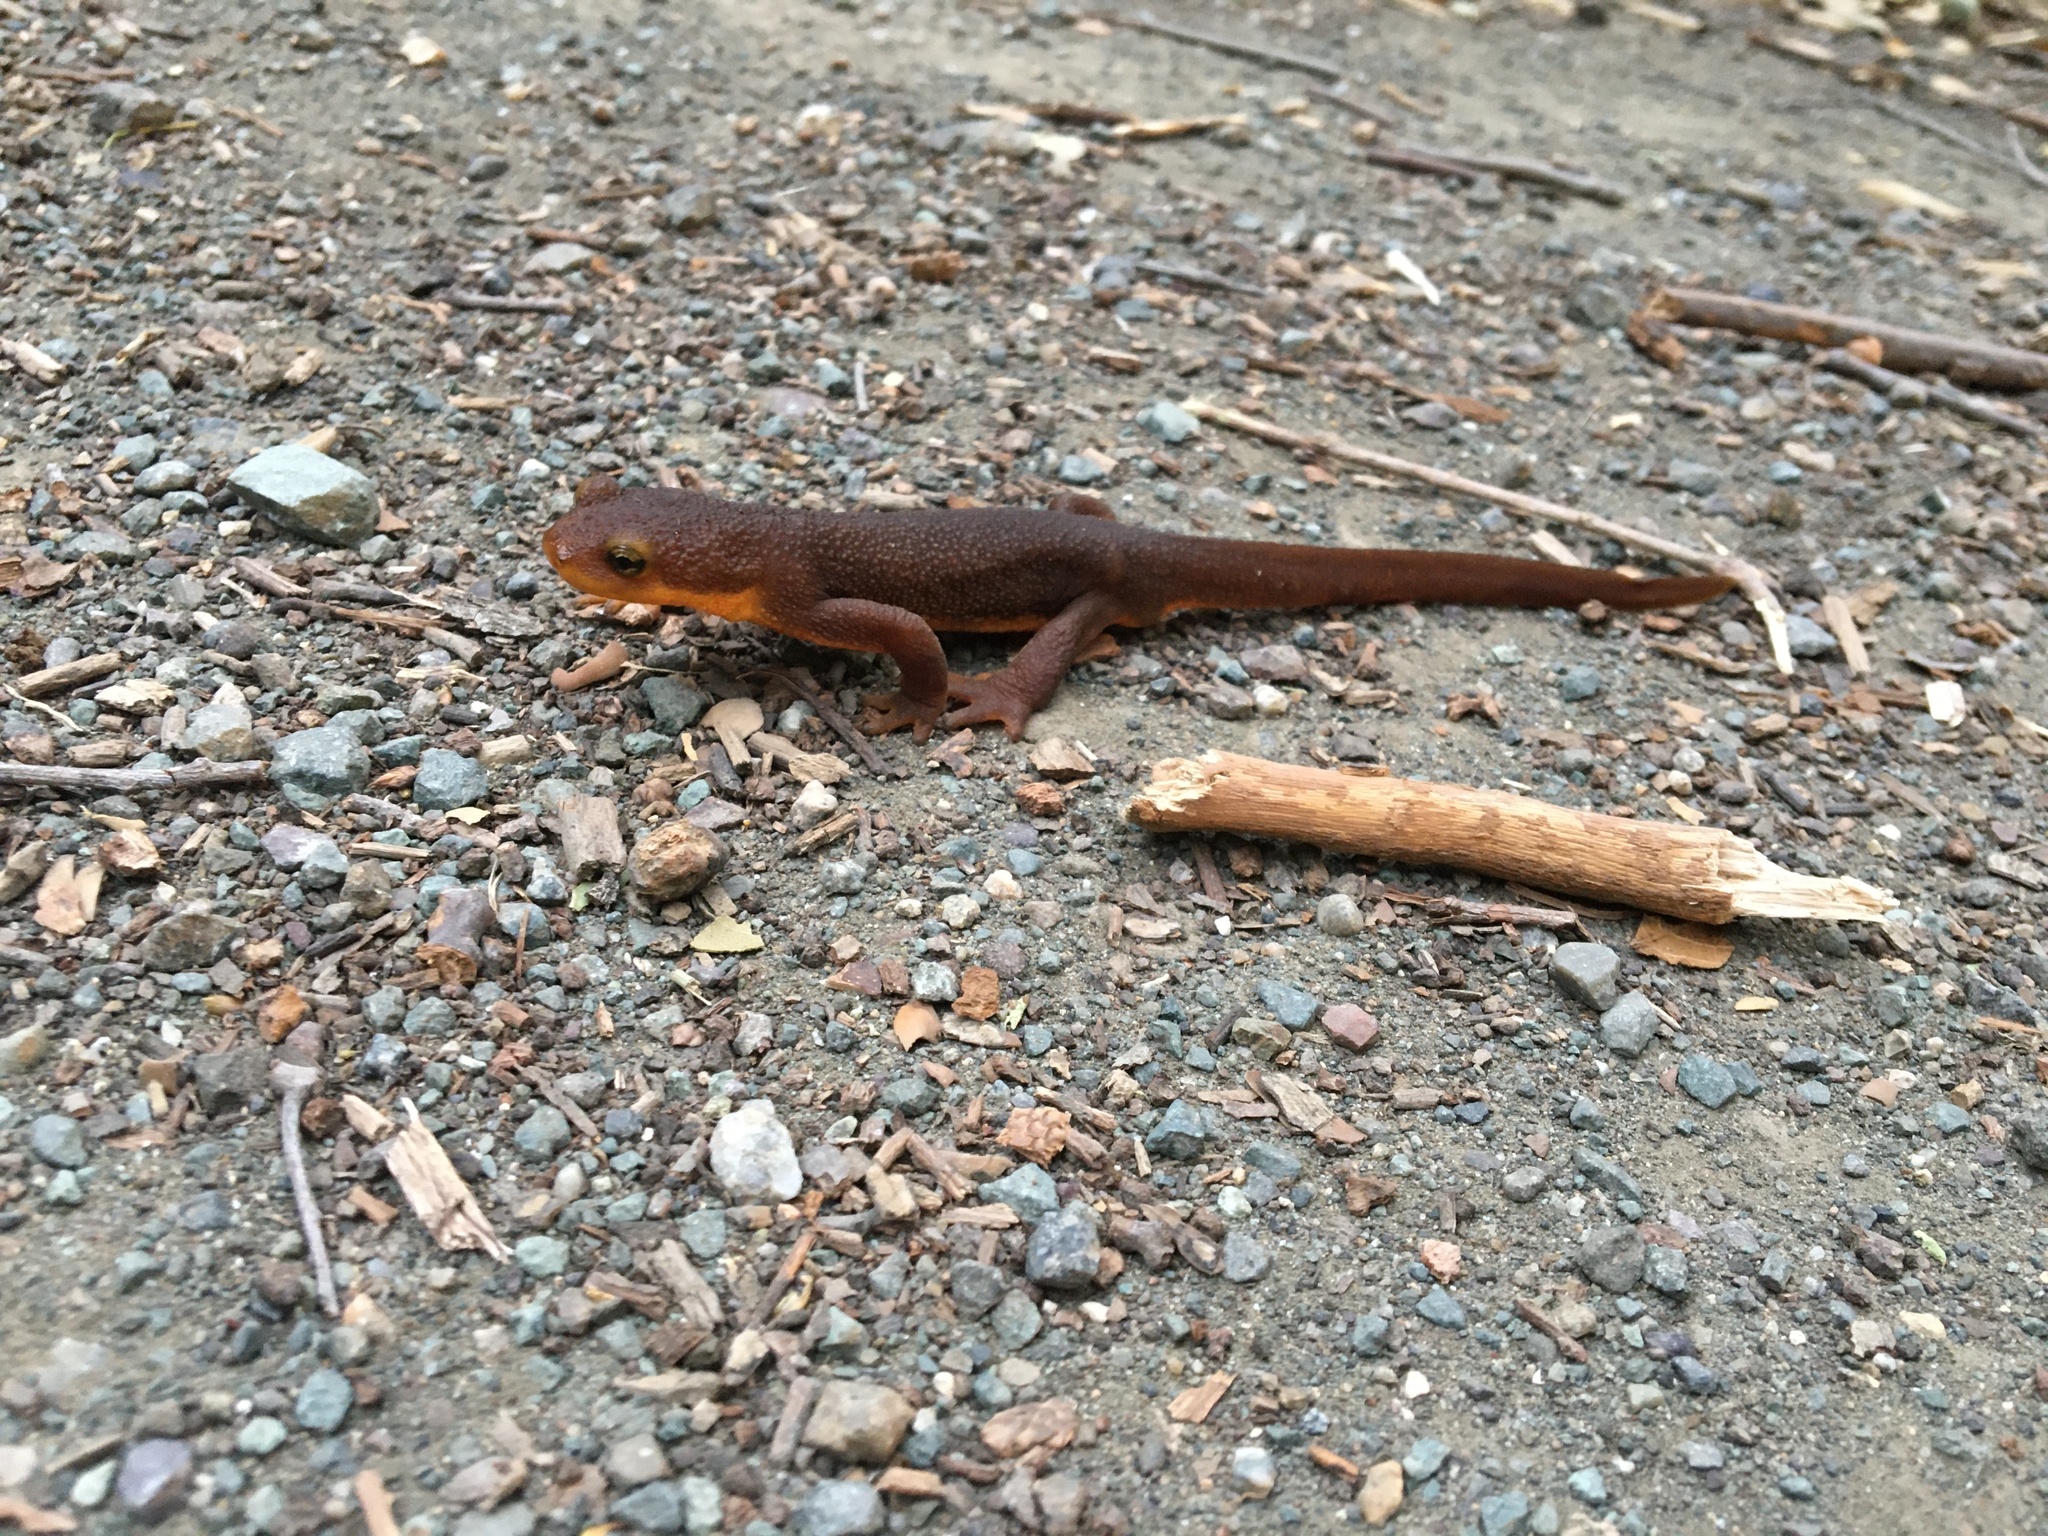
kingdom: Animalia
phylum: Chordata
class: Amphibia
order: Caudata
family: Salamandridae
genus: Taricha
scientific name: Taricha torosa
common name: California newt
